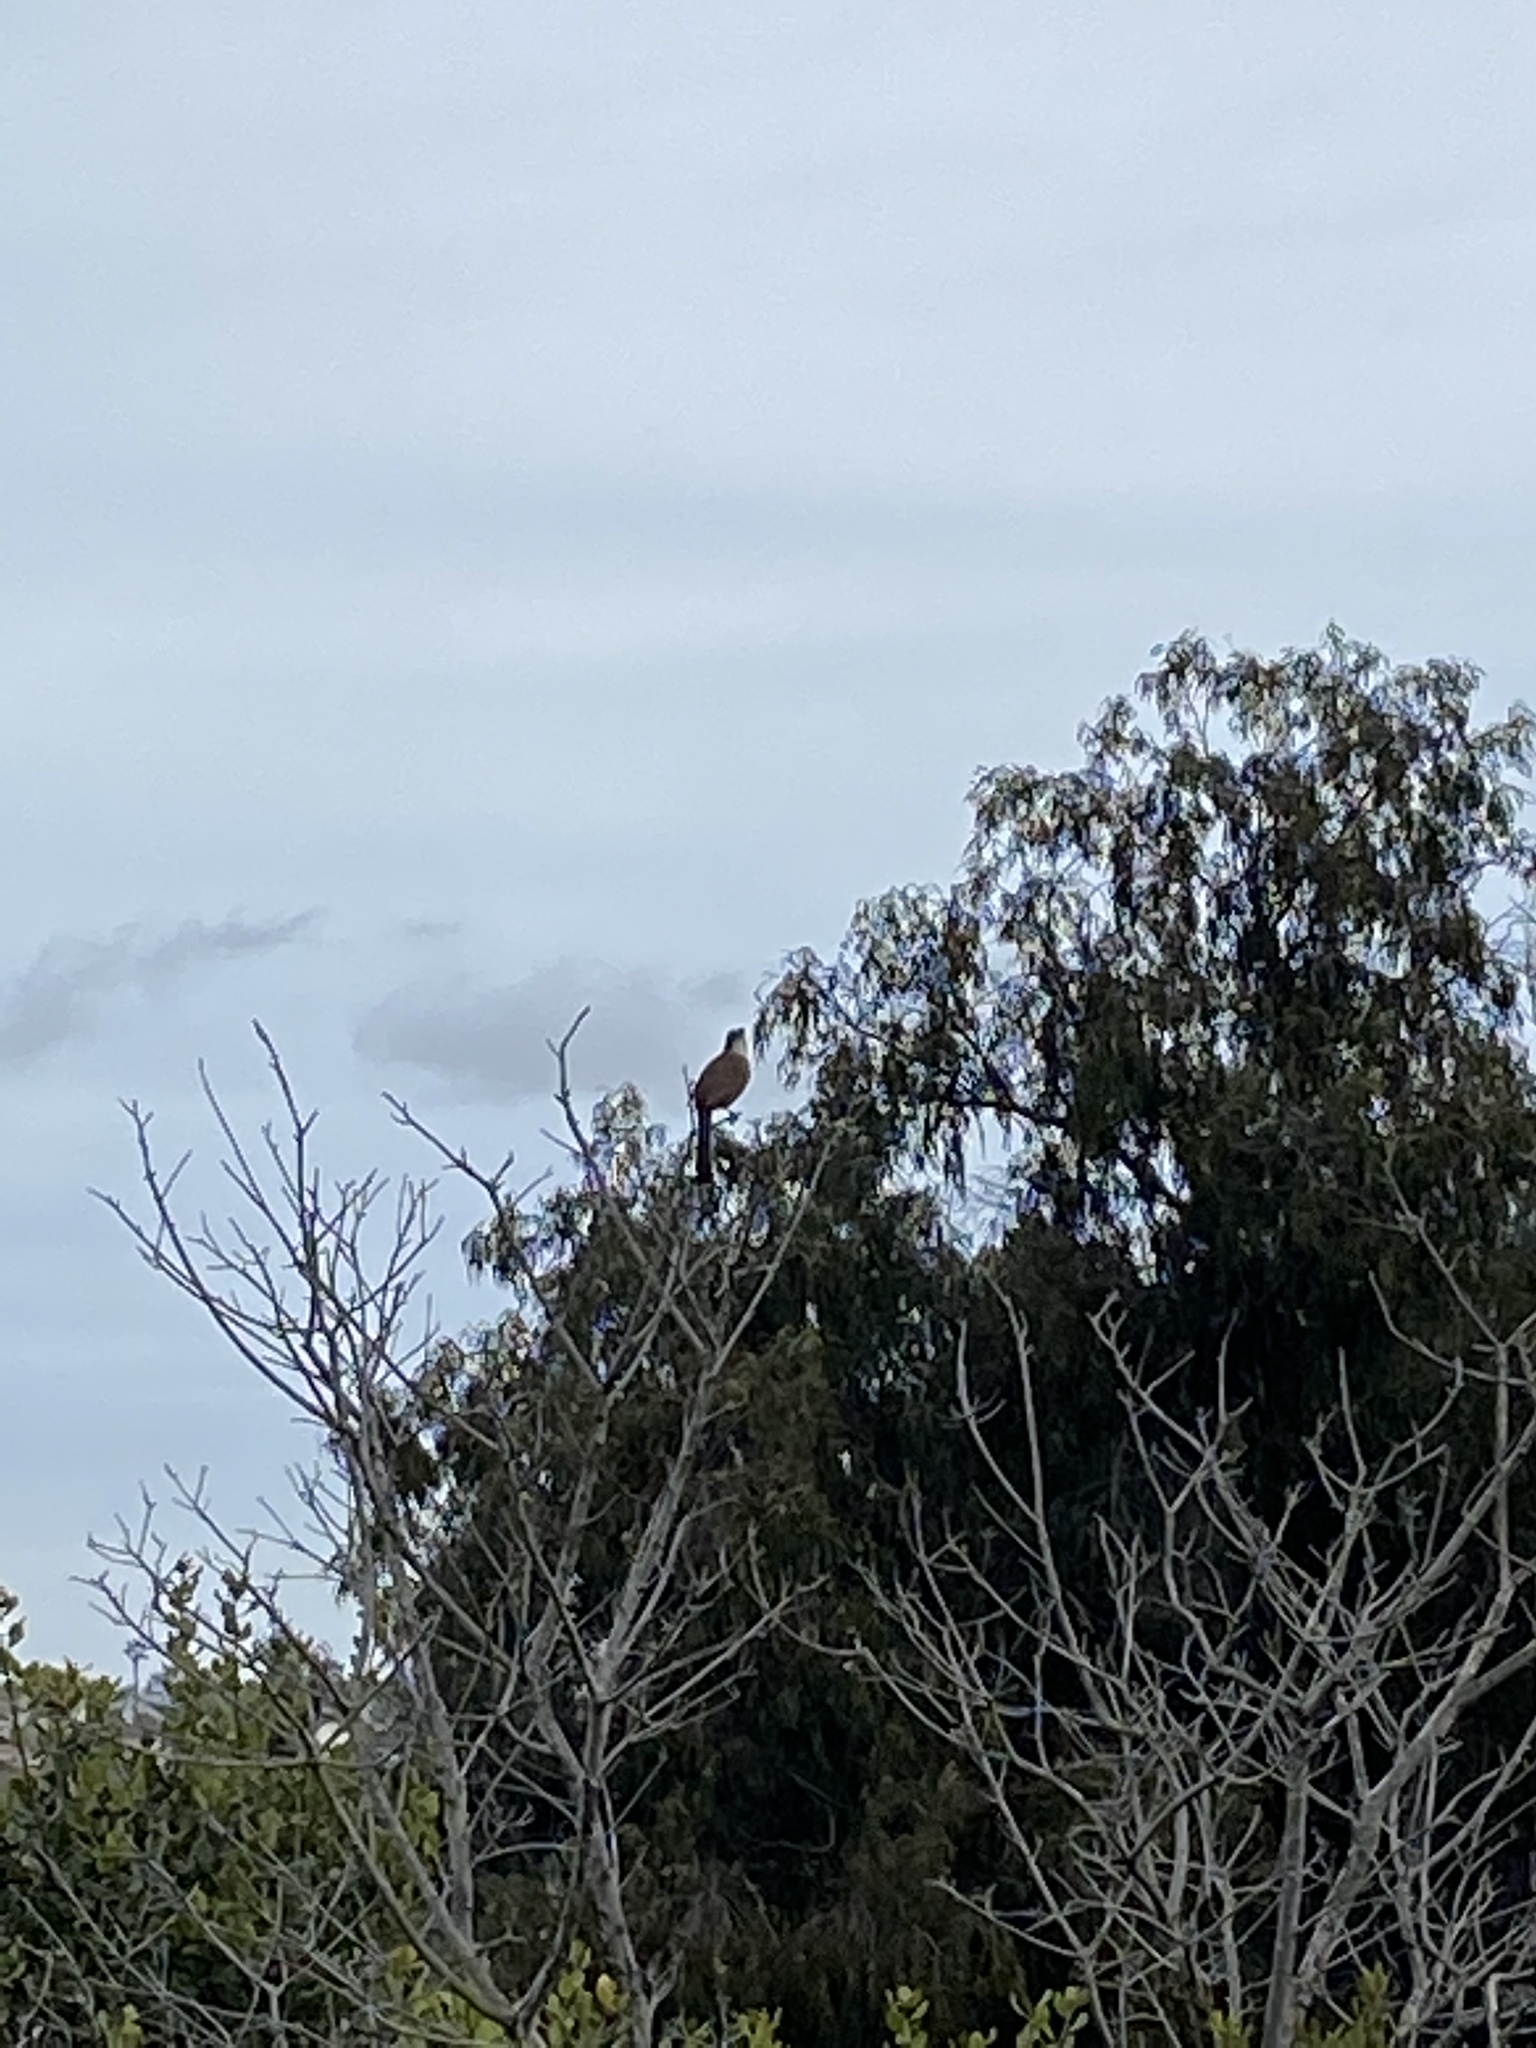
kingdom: Animalia
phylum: Chordata
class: Aves
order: Passeriformes
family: Mimidae
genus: Toxostoma
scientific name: Toxostoma redivivum
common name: California thrasher
